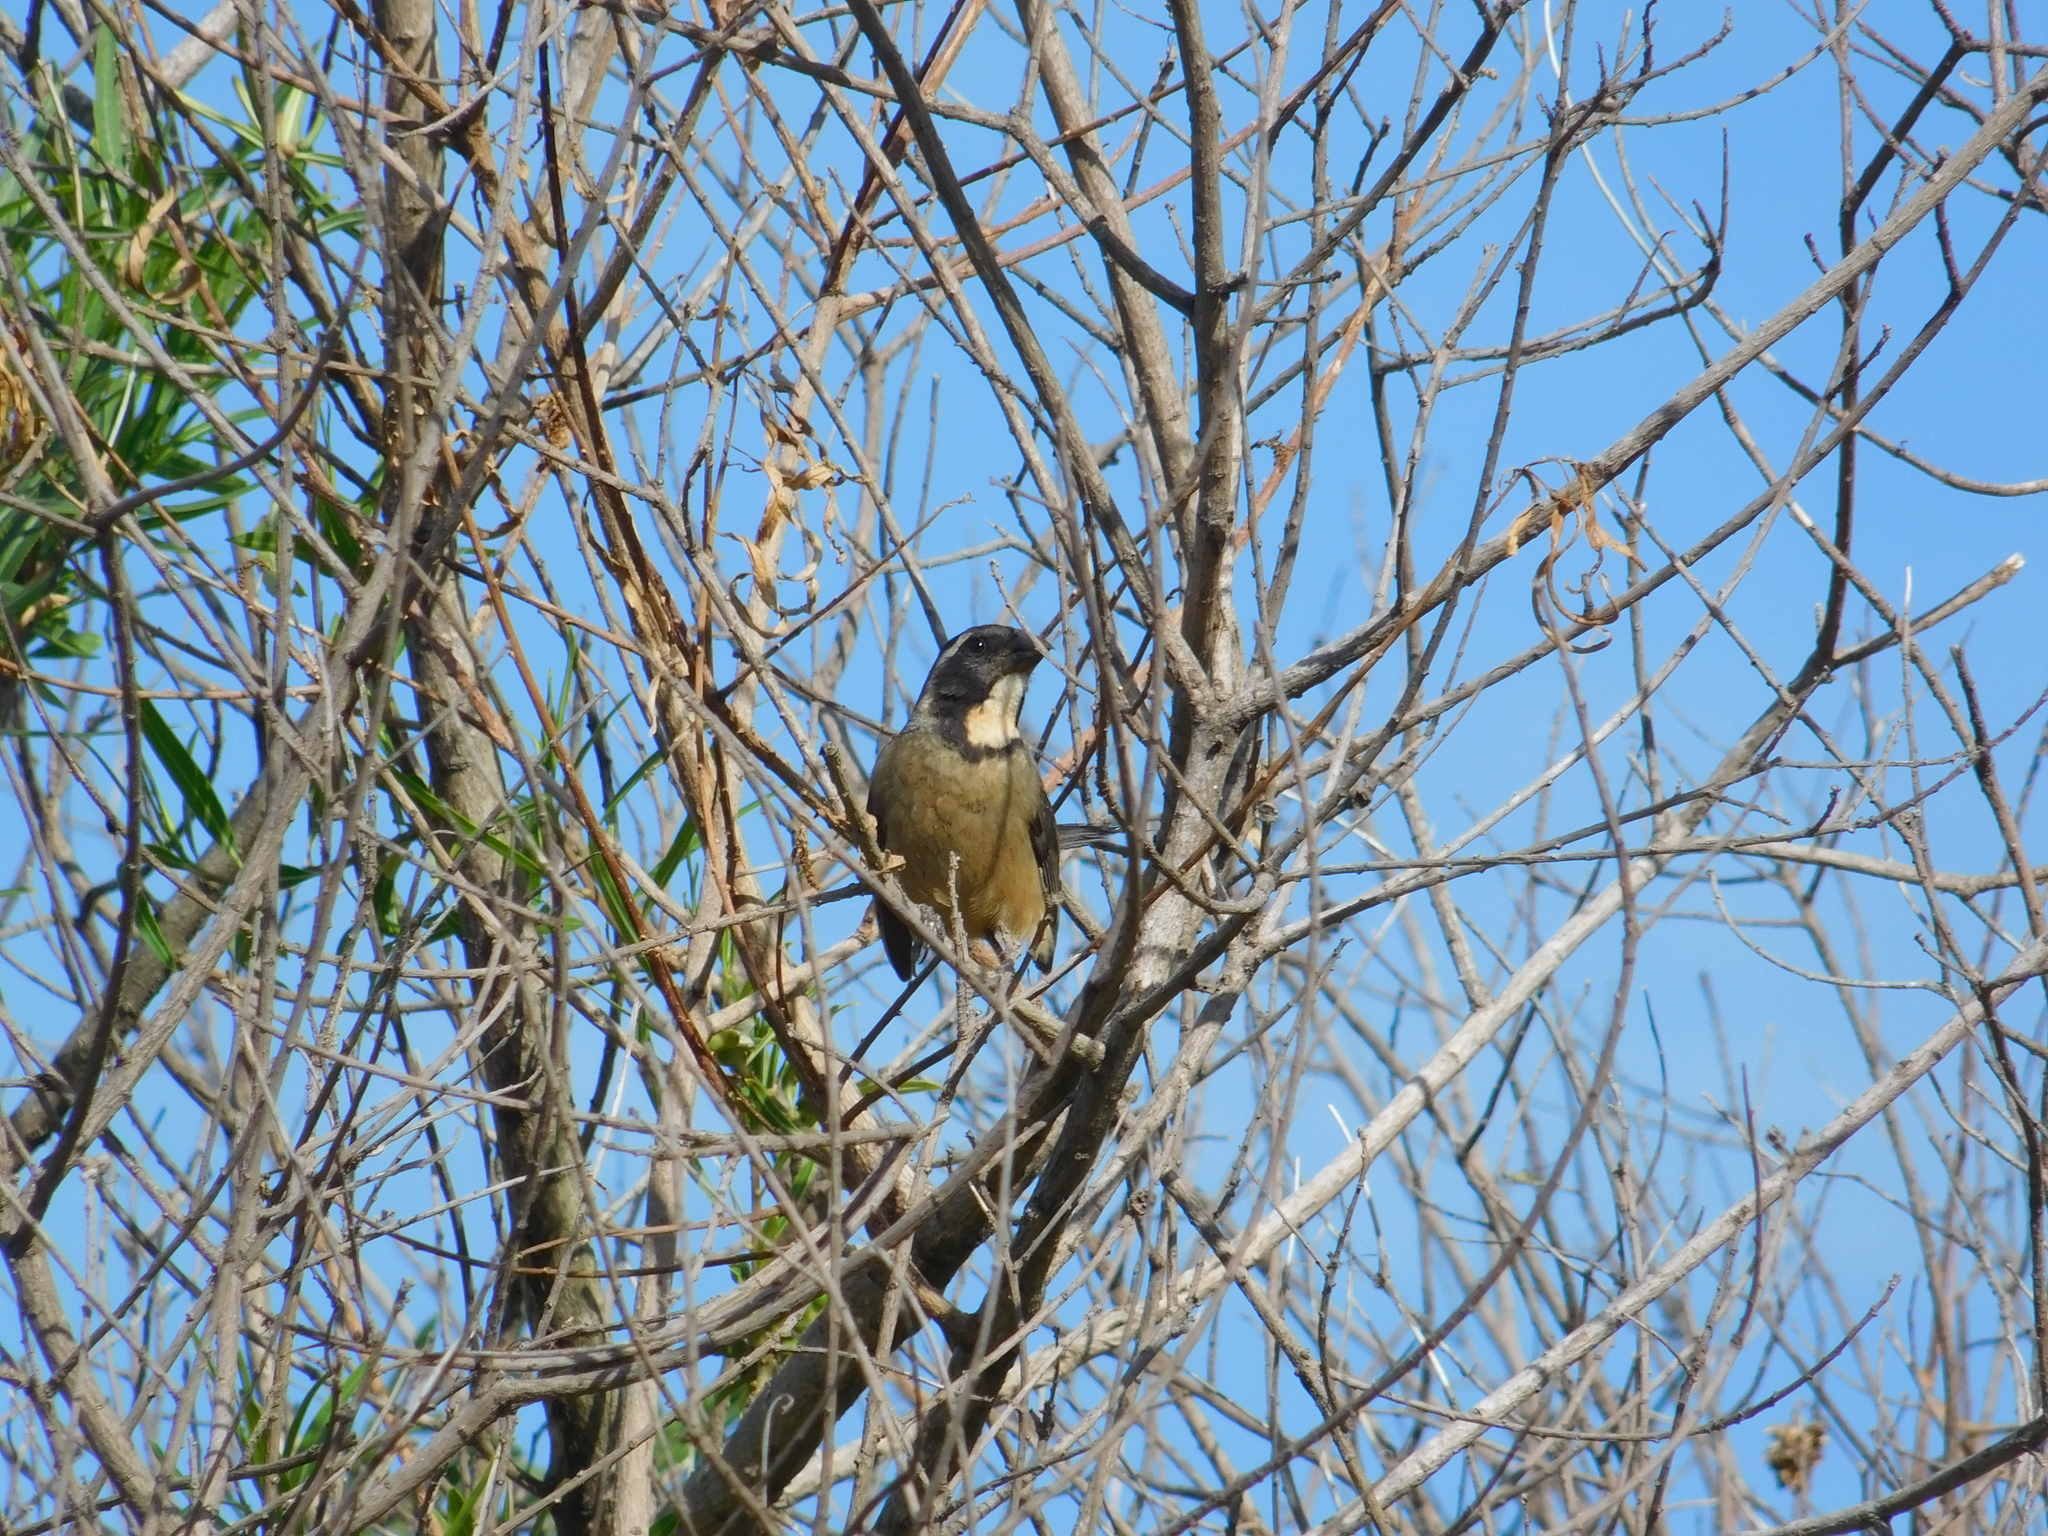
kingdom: Animalia
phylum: Chordata
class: Aves
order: Passeriformes
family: Thraupidae
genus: Saltator
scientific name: Saltator aurantiirostris
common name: Golden-billed saltator
